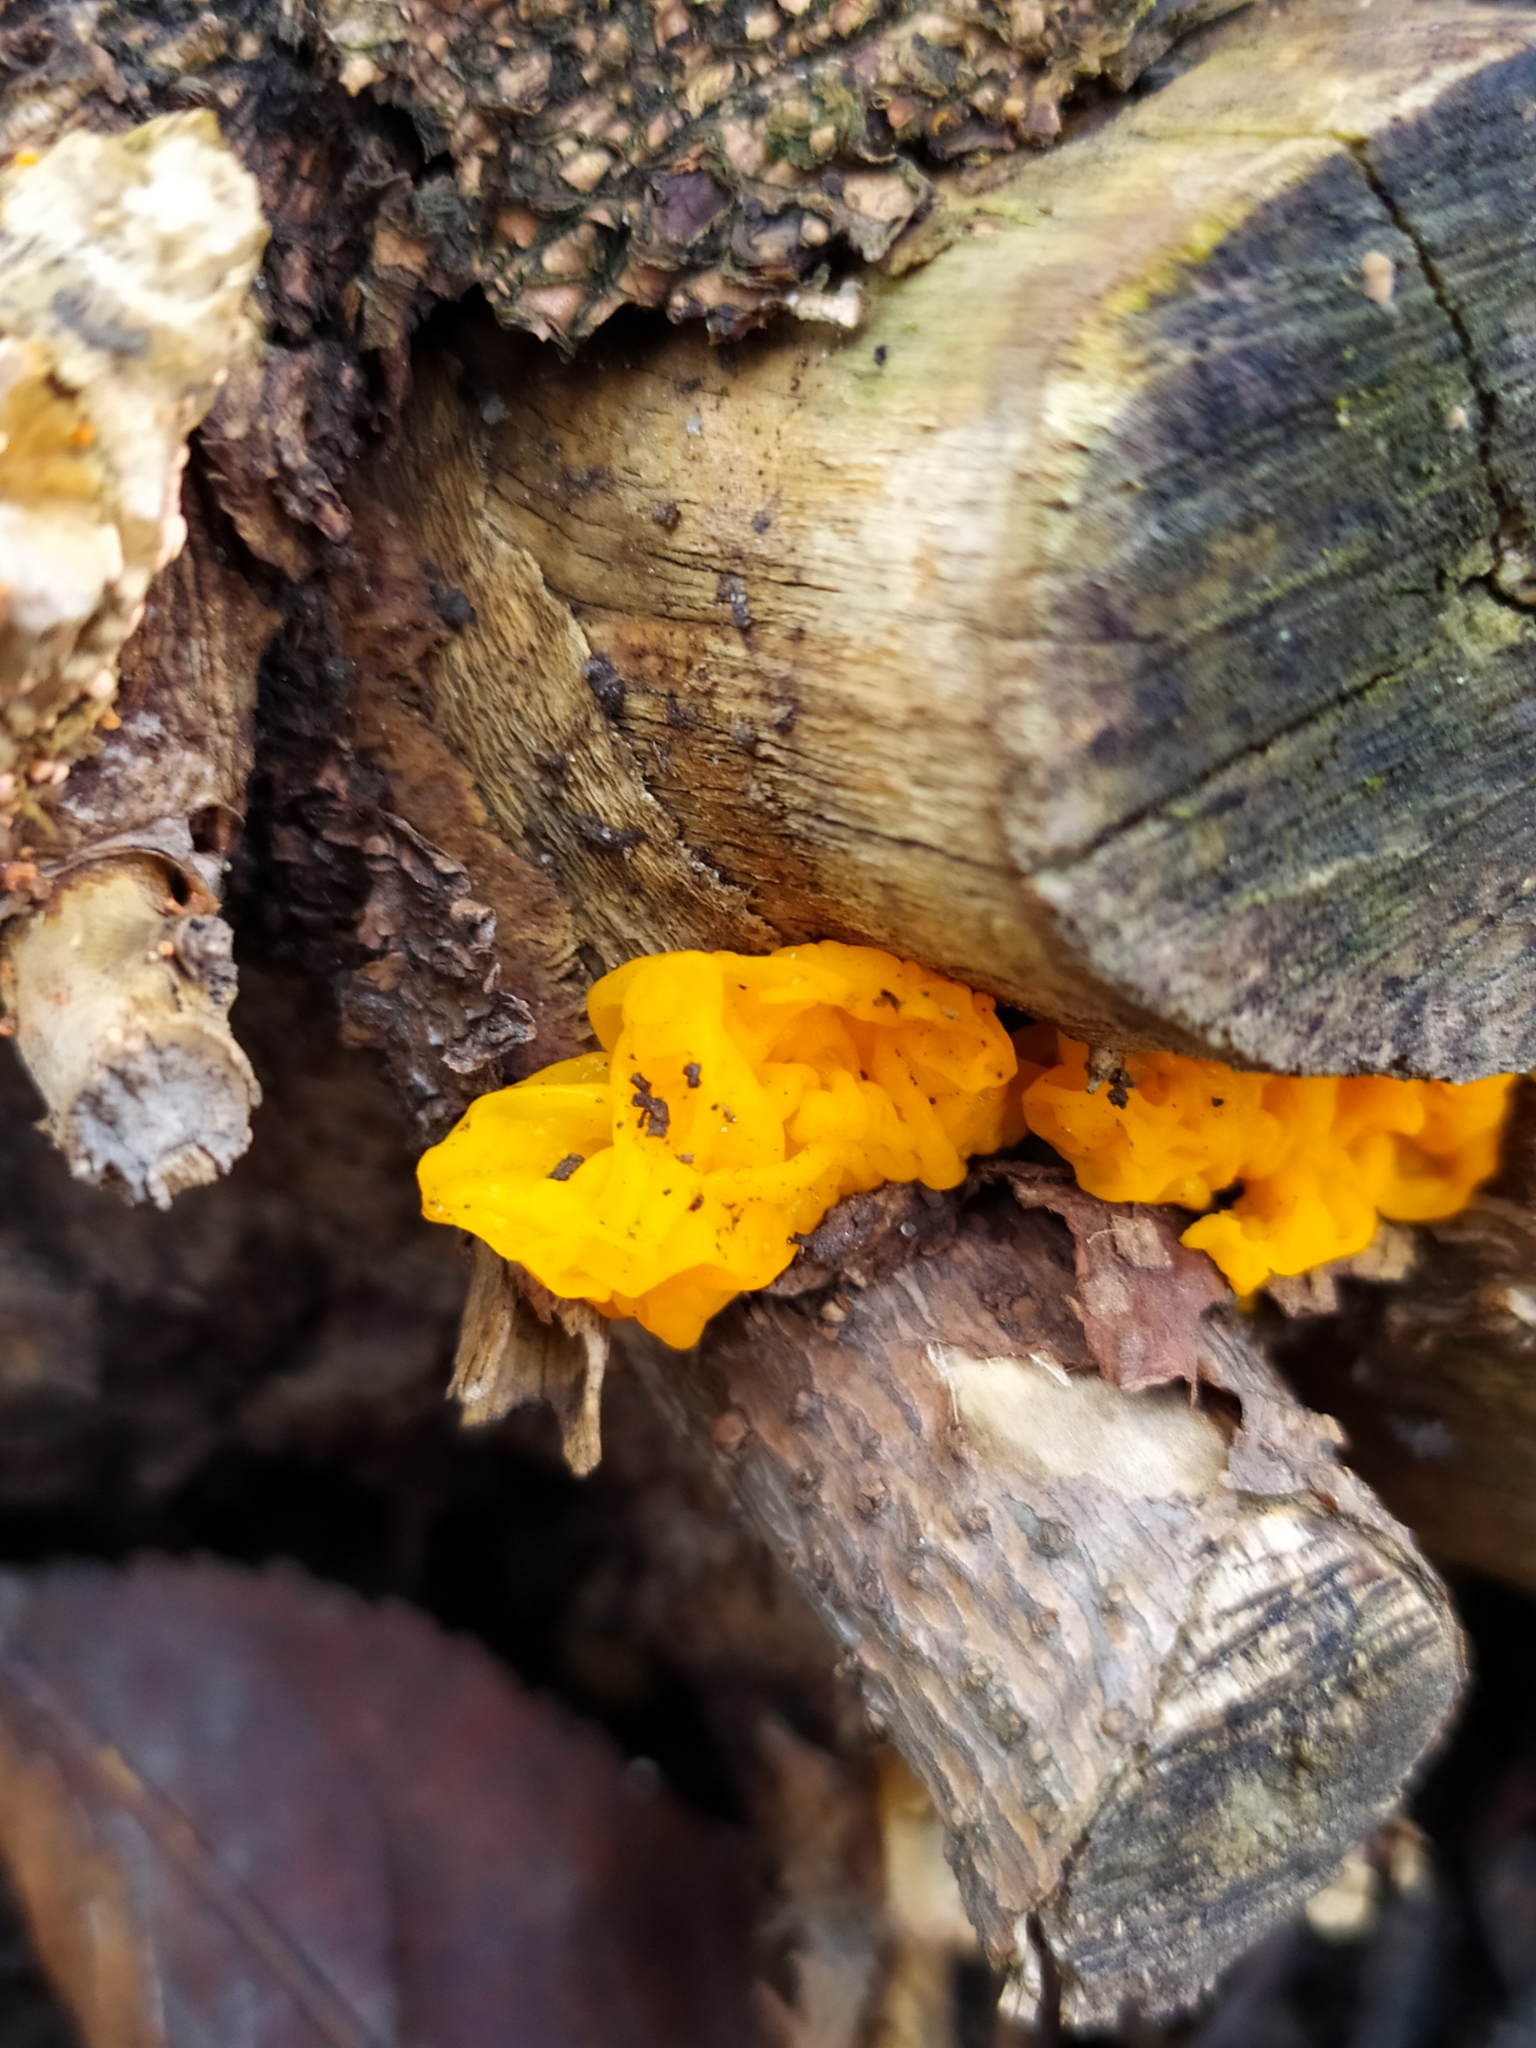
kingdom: Fungi
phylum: Basidiomycota
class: Tremellomycetes
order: Tremellales
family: Tremellaceae
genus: Tremella
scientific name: Tremella mesenterica
